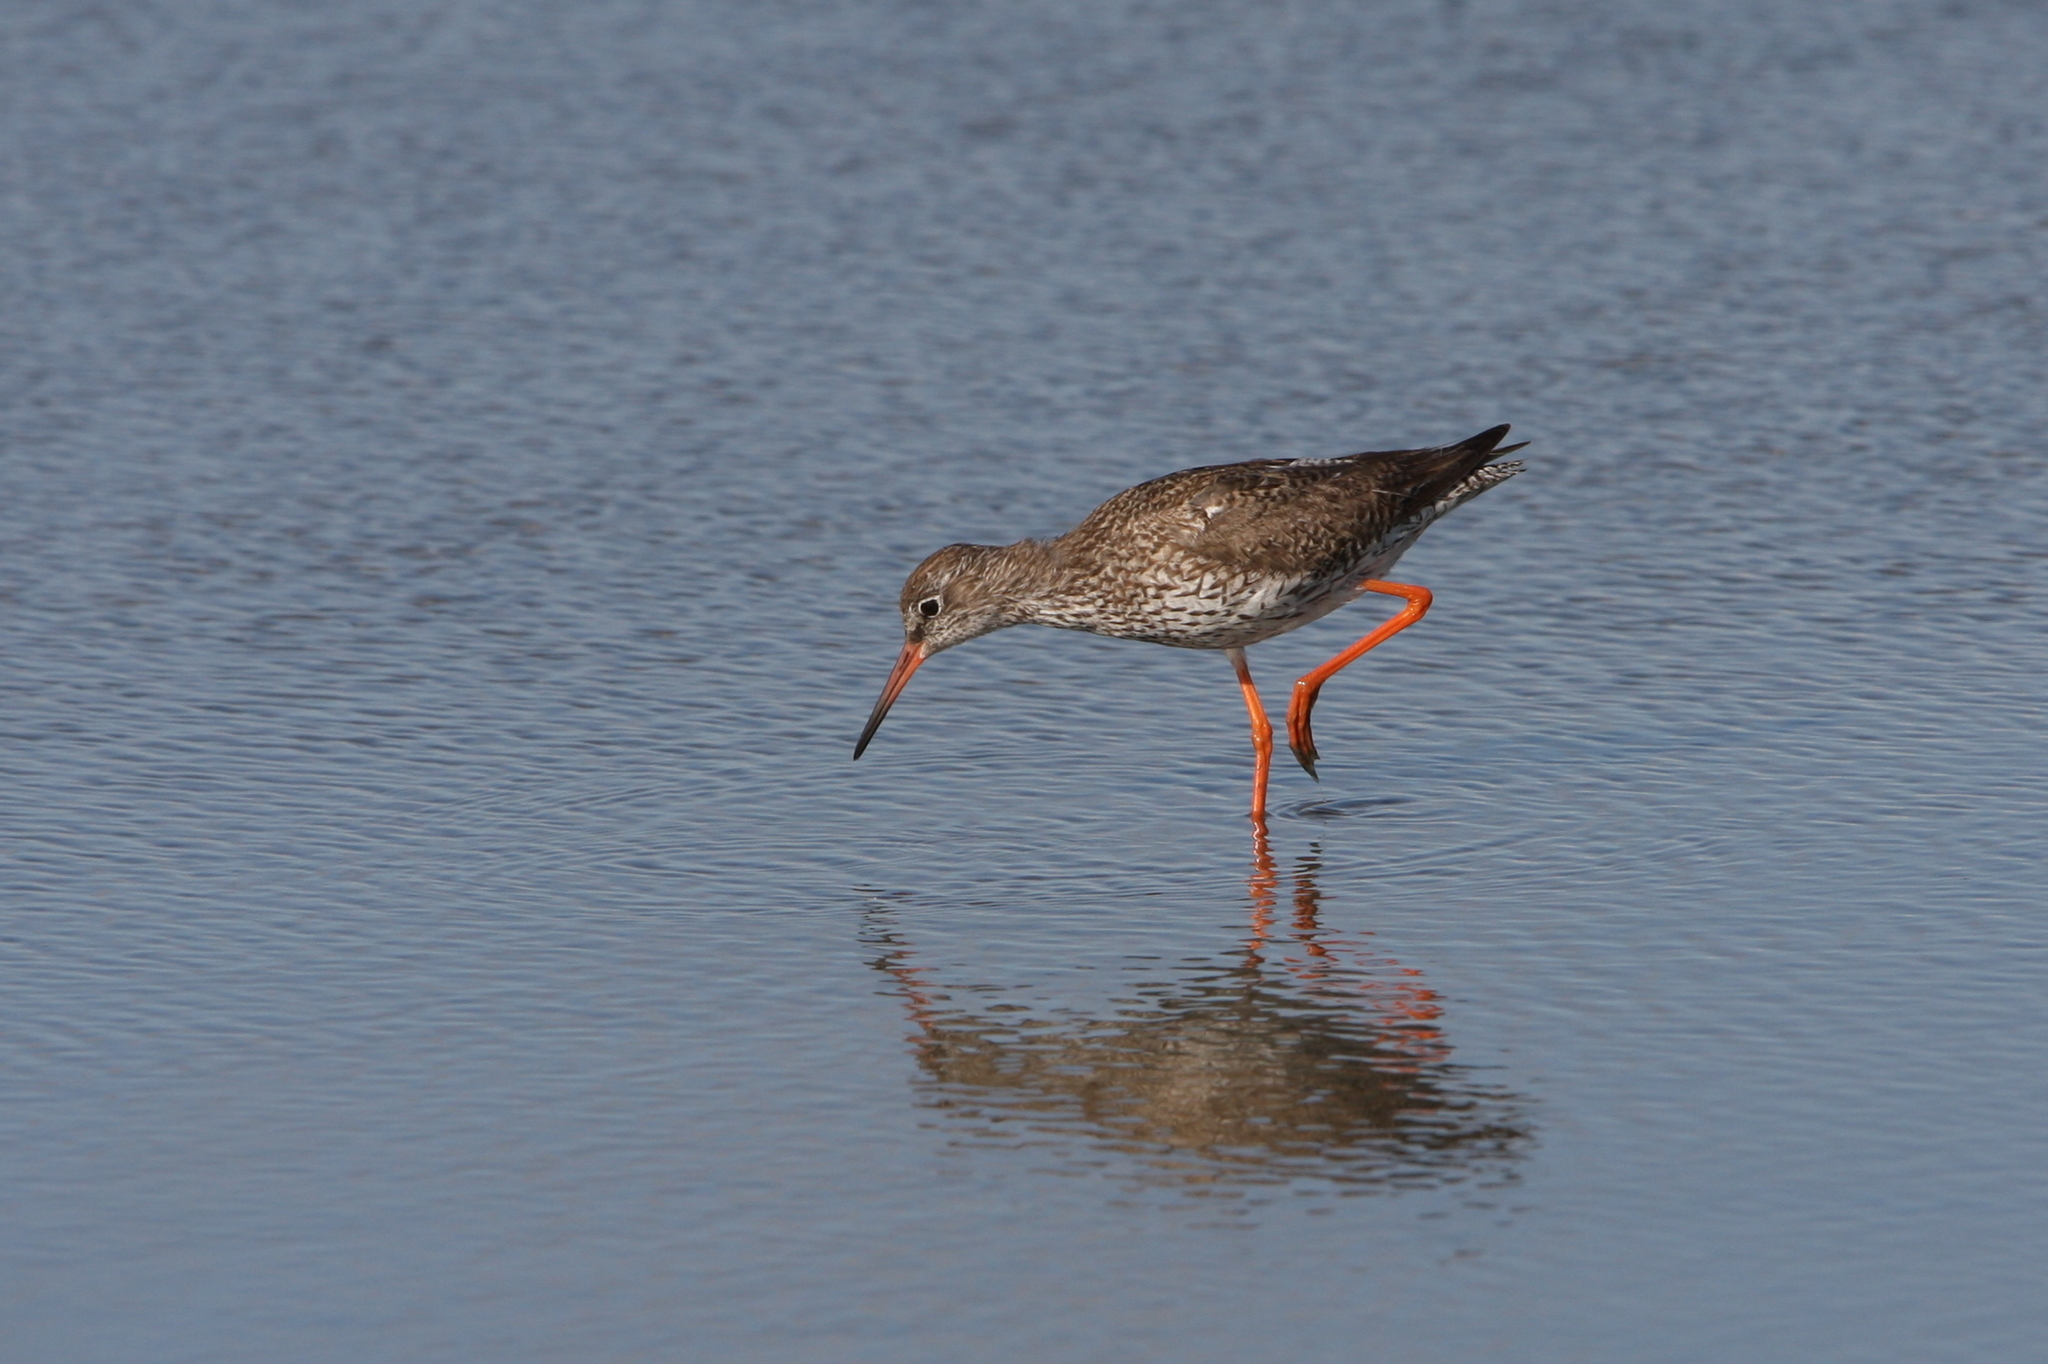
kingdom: Animalia
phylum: Chordata
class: Aves
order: Charadriiformes
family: Scolopacidae
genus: Tringa
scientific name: Tringa totanus
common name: Common redshank
